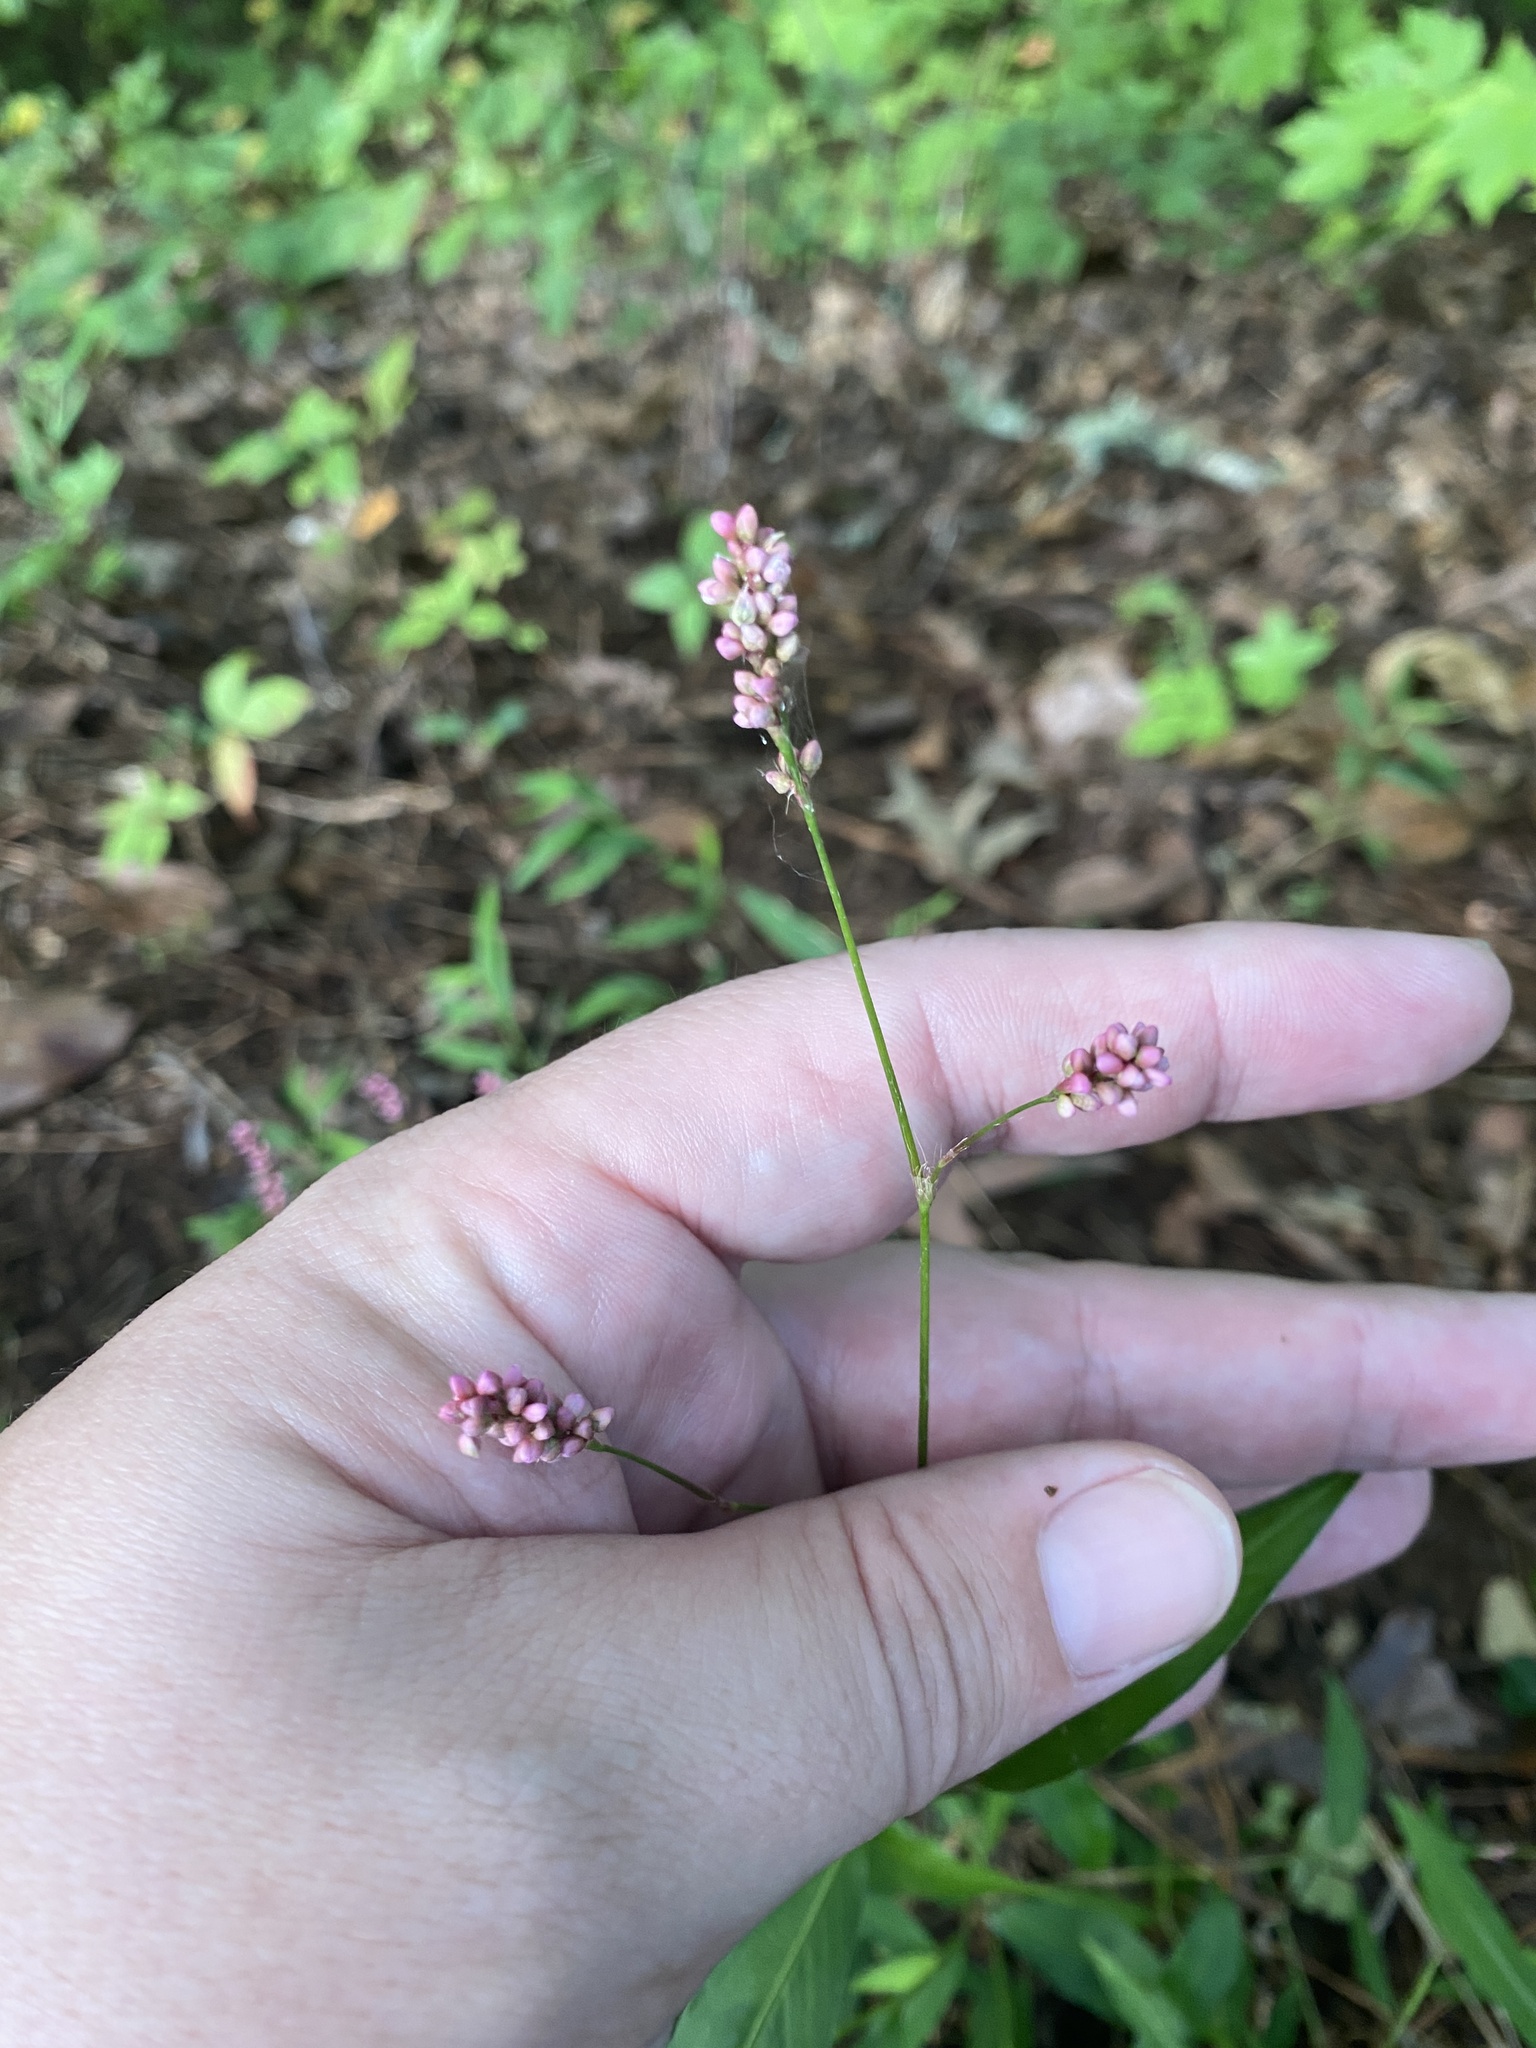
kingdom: Plantae
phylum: Tracheophyta
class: Magnoliopsida
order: Caryophyllales
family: Polygonaceae
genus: Persicaria
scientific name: Persicaria longiseta
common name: Bristly lady's-thumb
